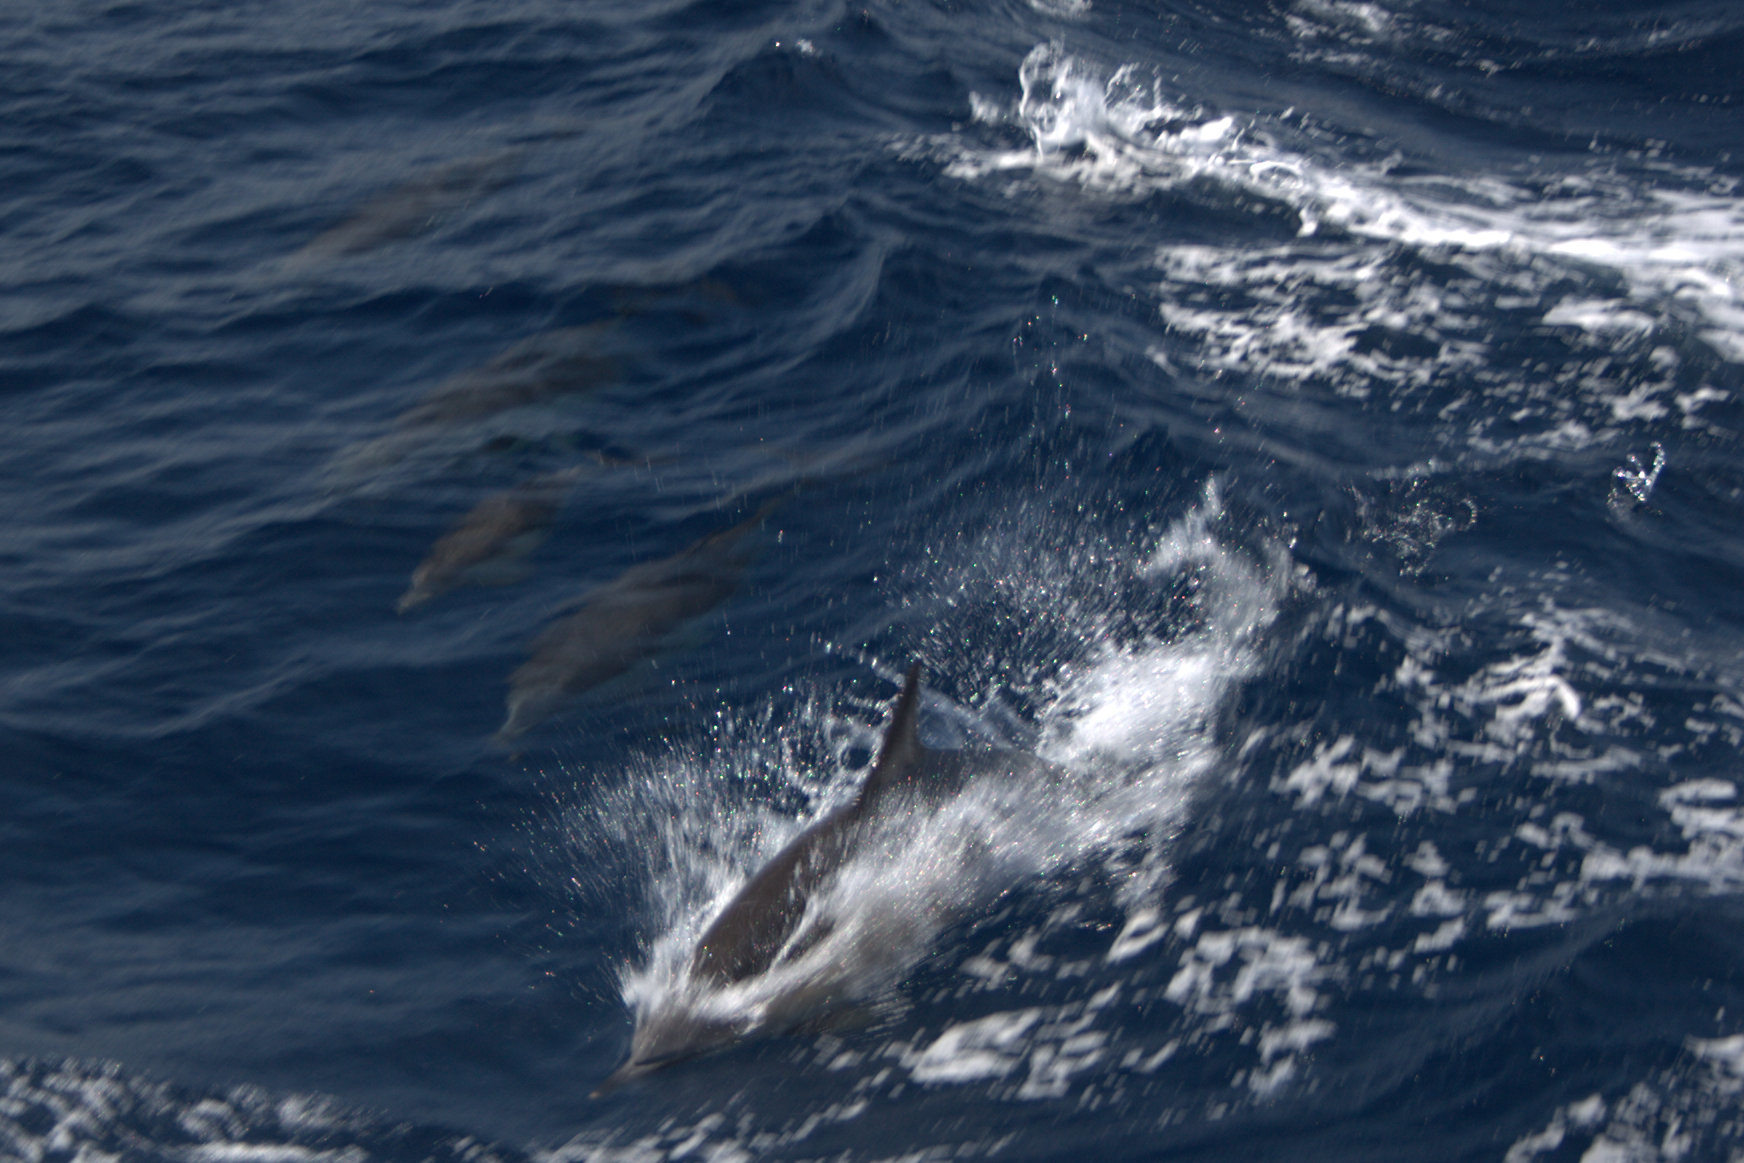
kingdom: Animalia
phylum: Chordata
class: Mammalia
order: Cetacea
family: Delphinidae
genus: Delphinus
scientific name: Delphinus delphis
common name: Common dolphin
